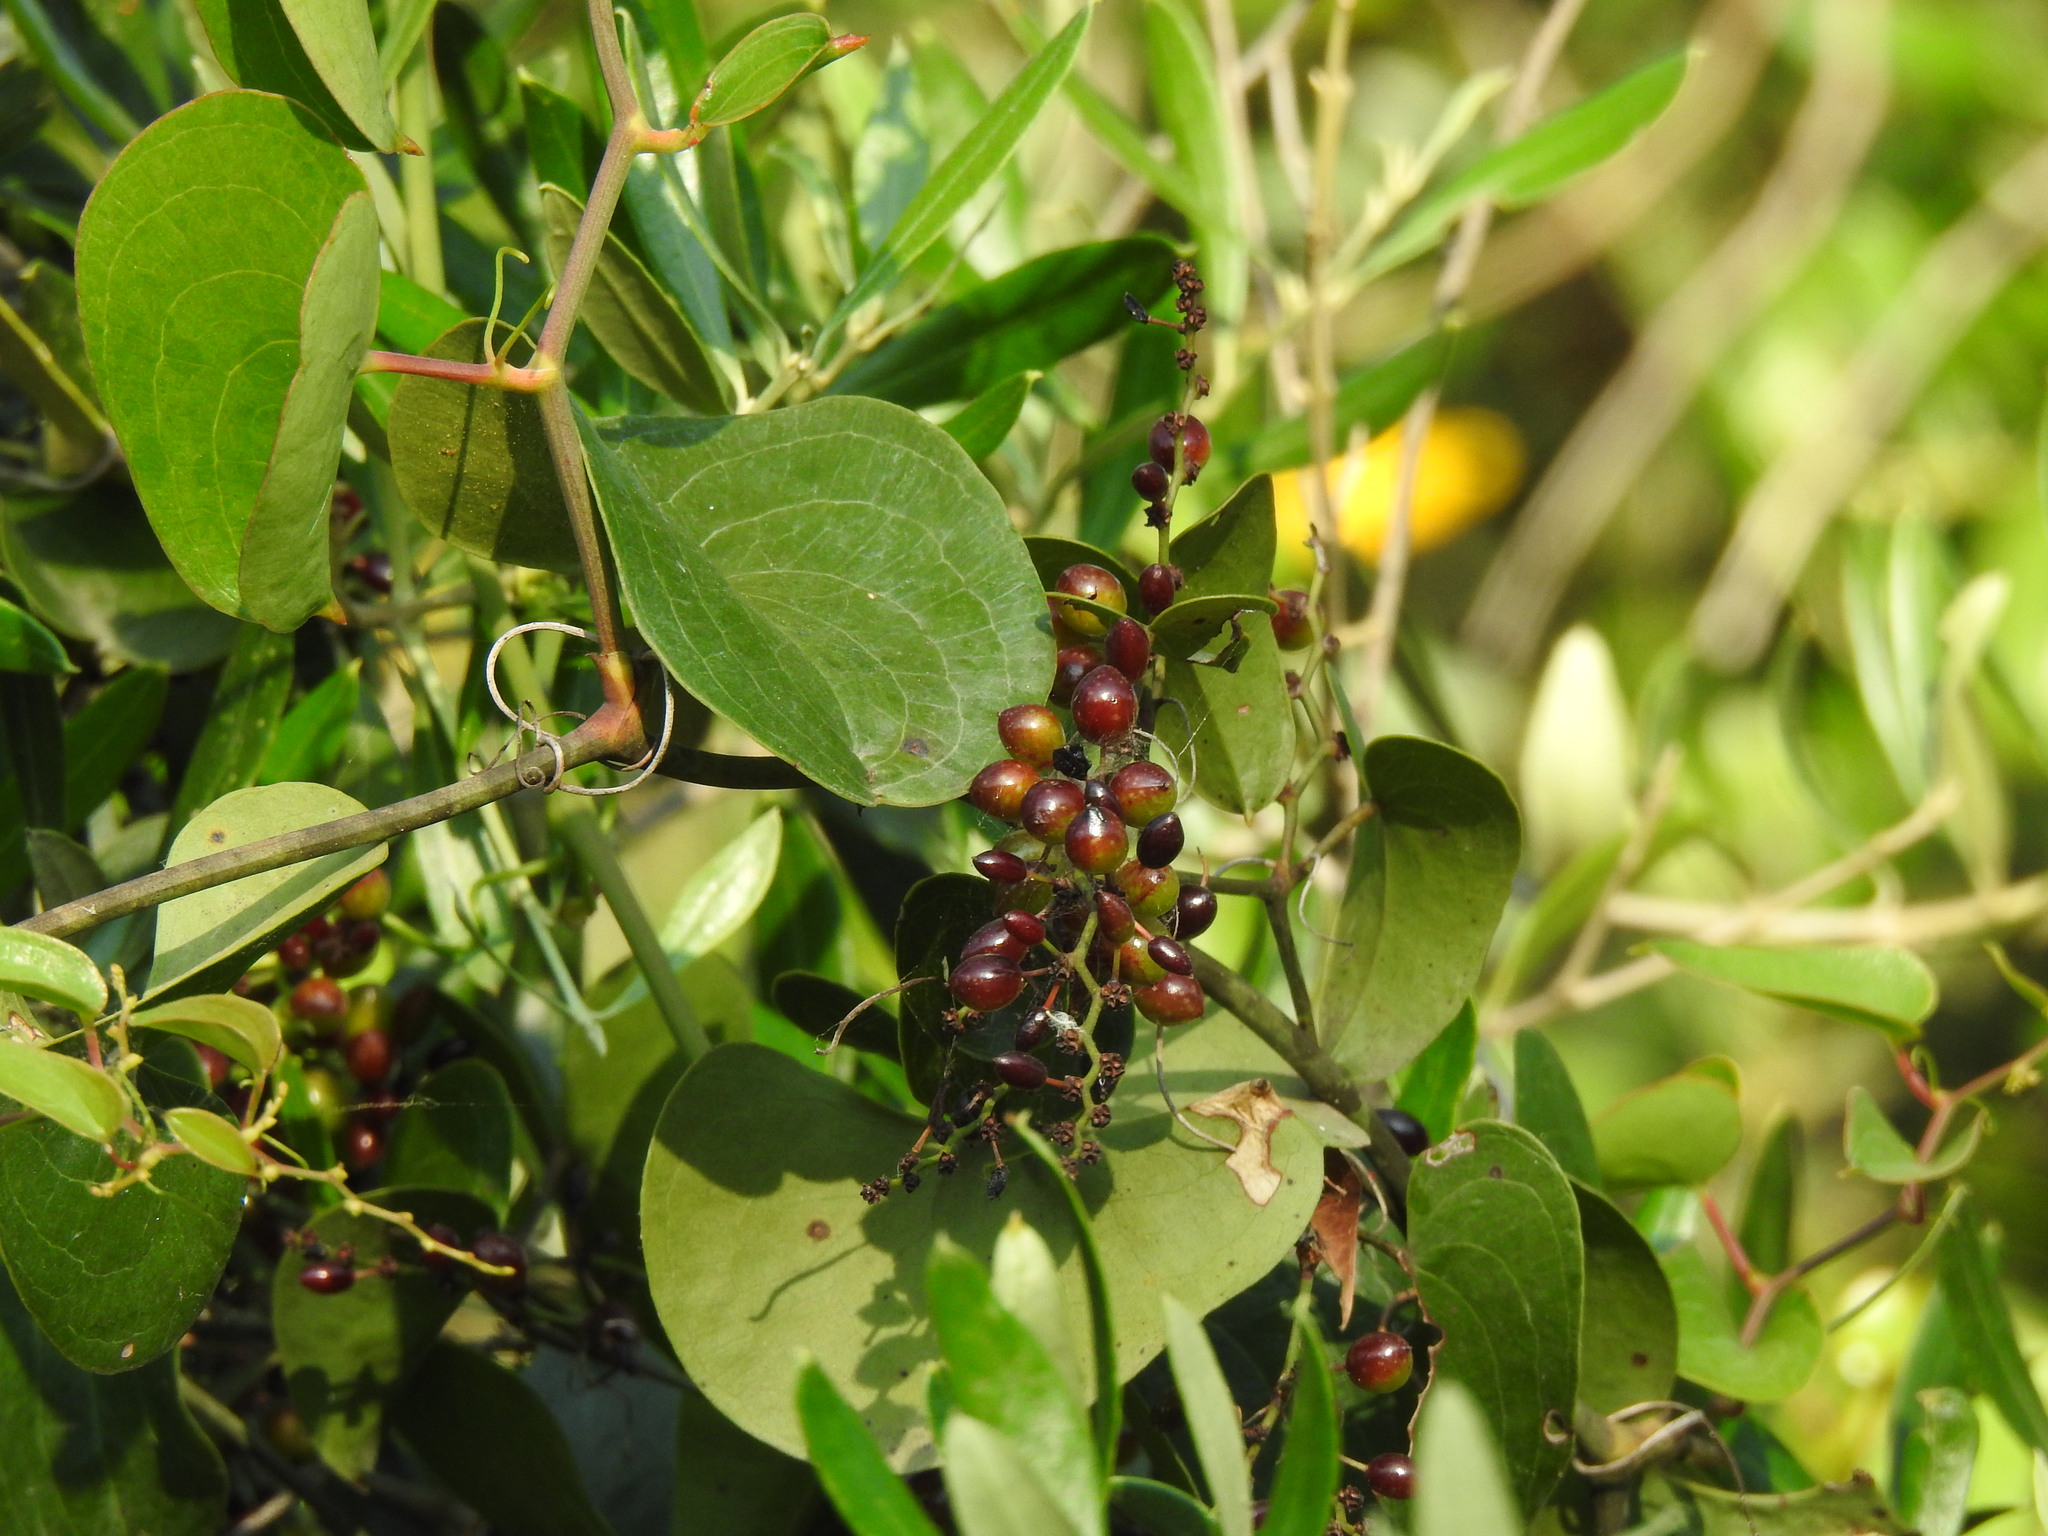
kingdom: Plantae
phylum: Tracheophyta
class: Liliopsida
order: Liliales
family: Smilacaceae
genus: Smilax
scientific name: Smilax aspera
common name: Common smilax
